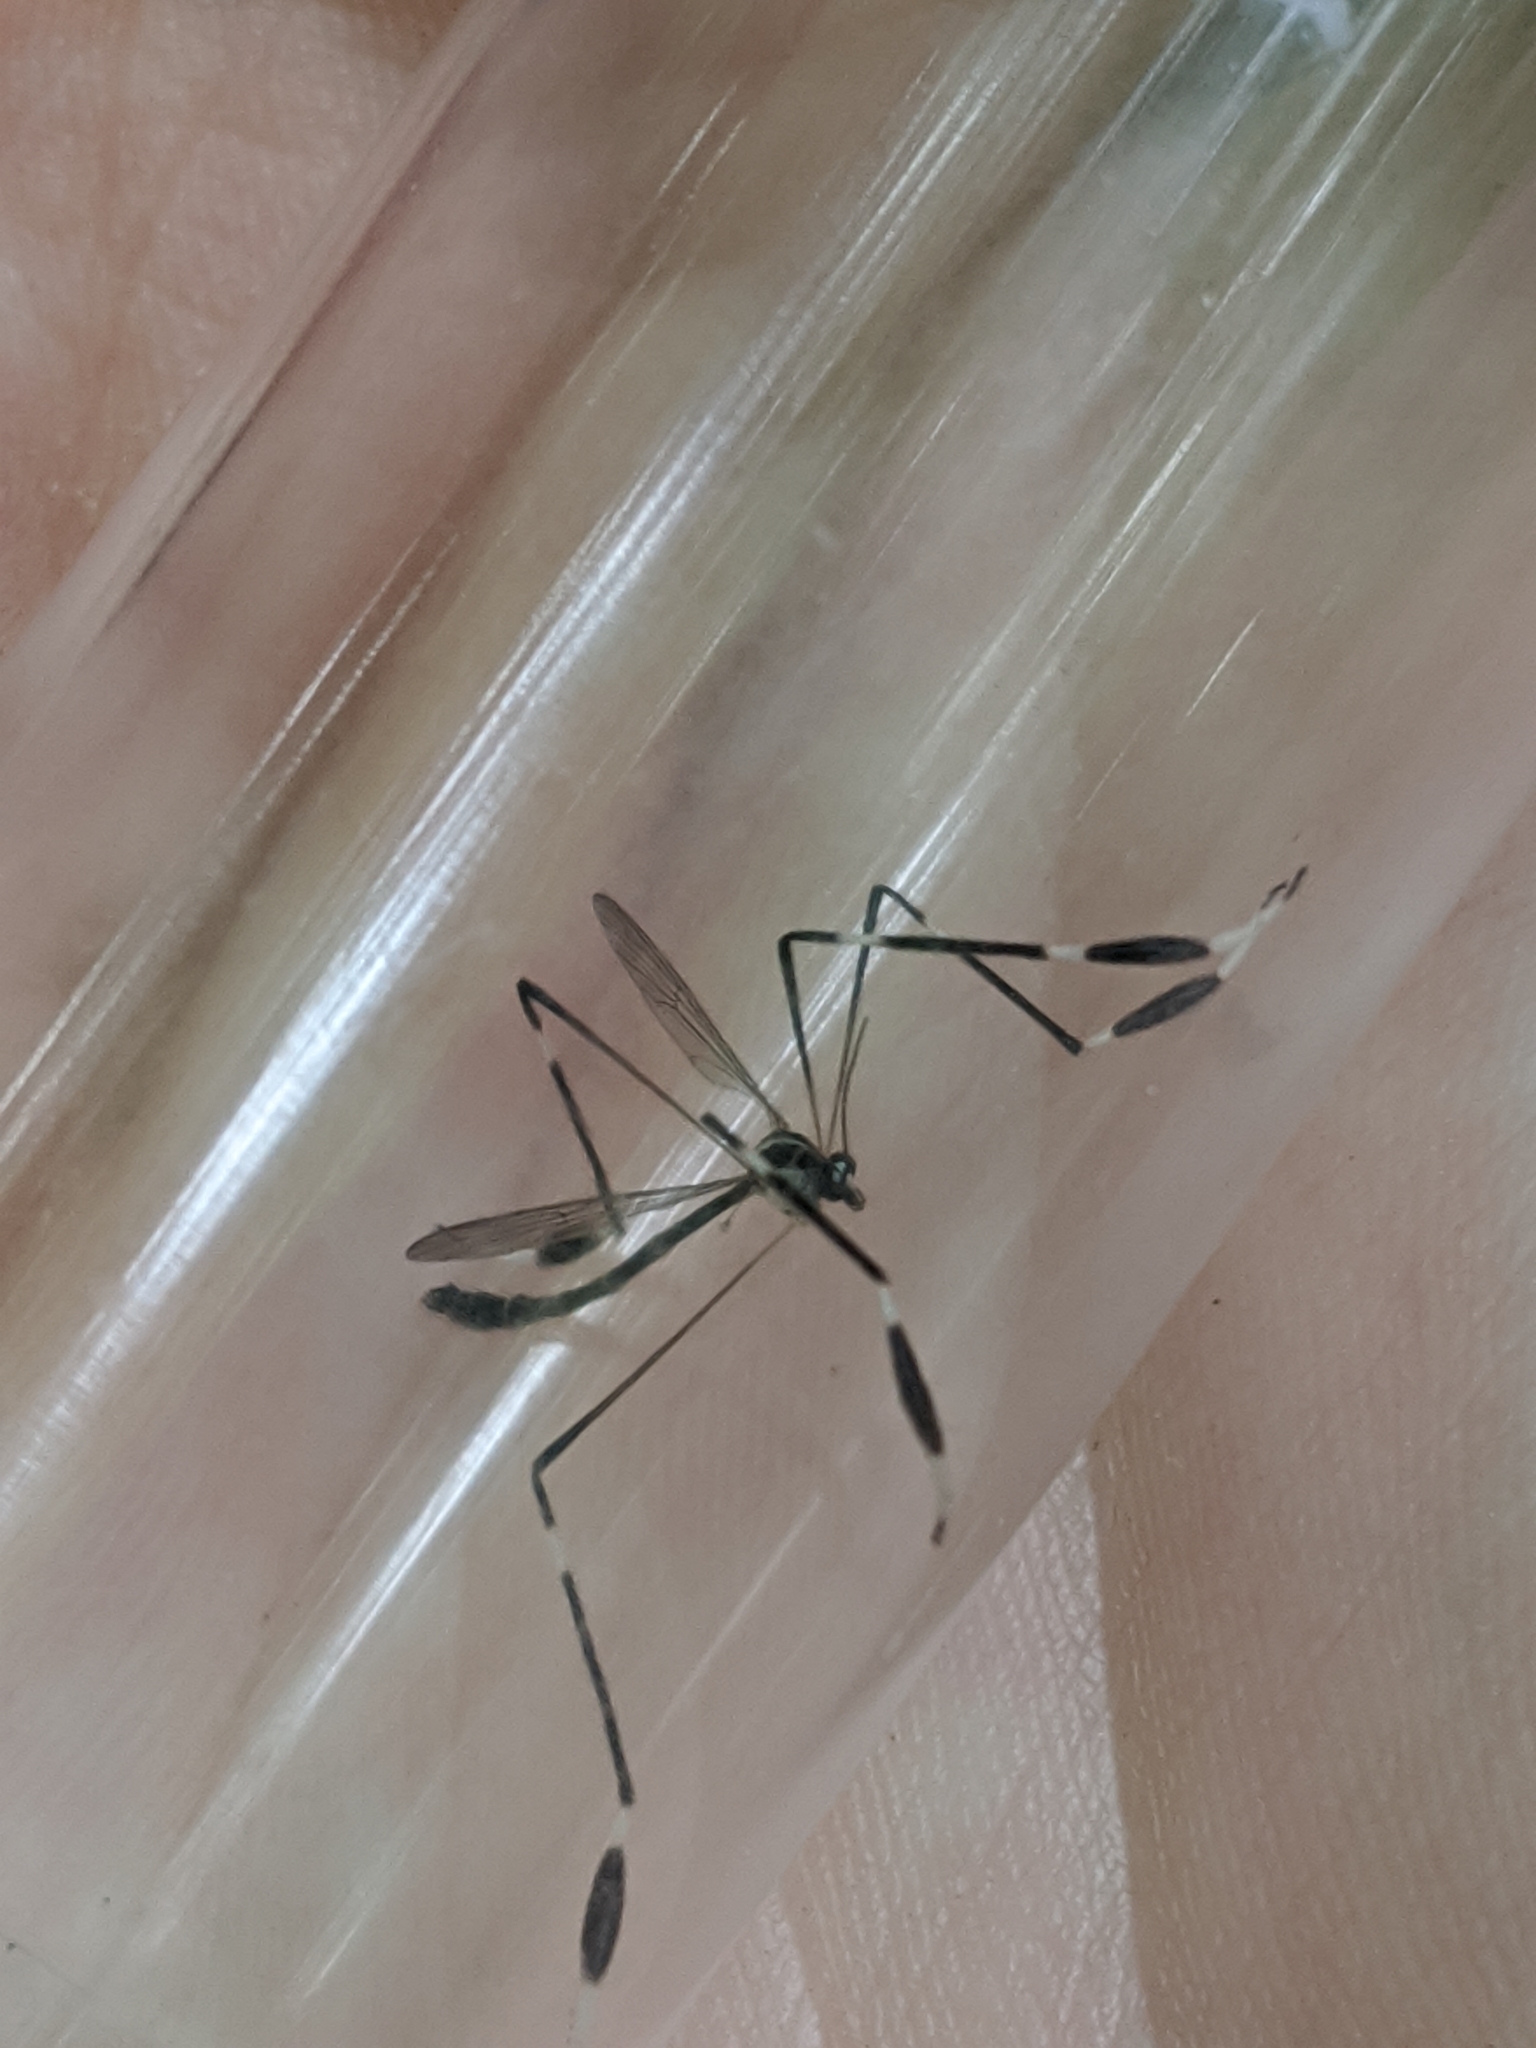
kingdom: Animalia
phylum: Arthropoda
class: Insecta
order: Diptera
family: Ptychopteridae
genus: Bittacomorpha
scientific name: Bittacomorpha clavipes
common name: Eastern phantom crane fly
